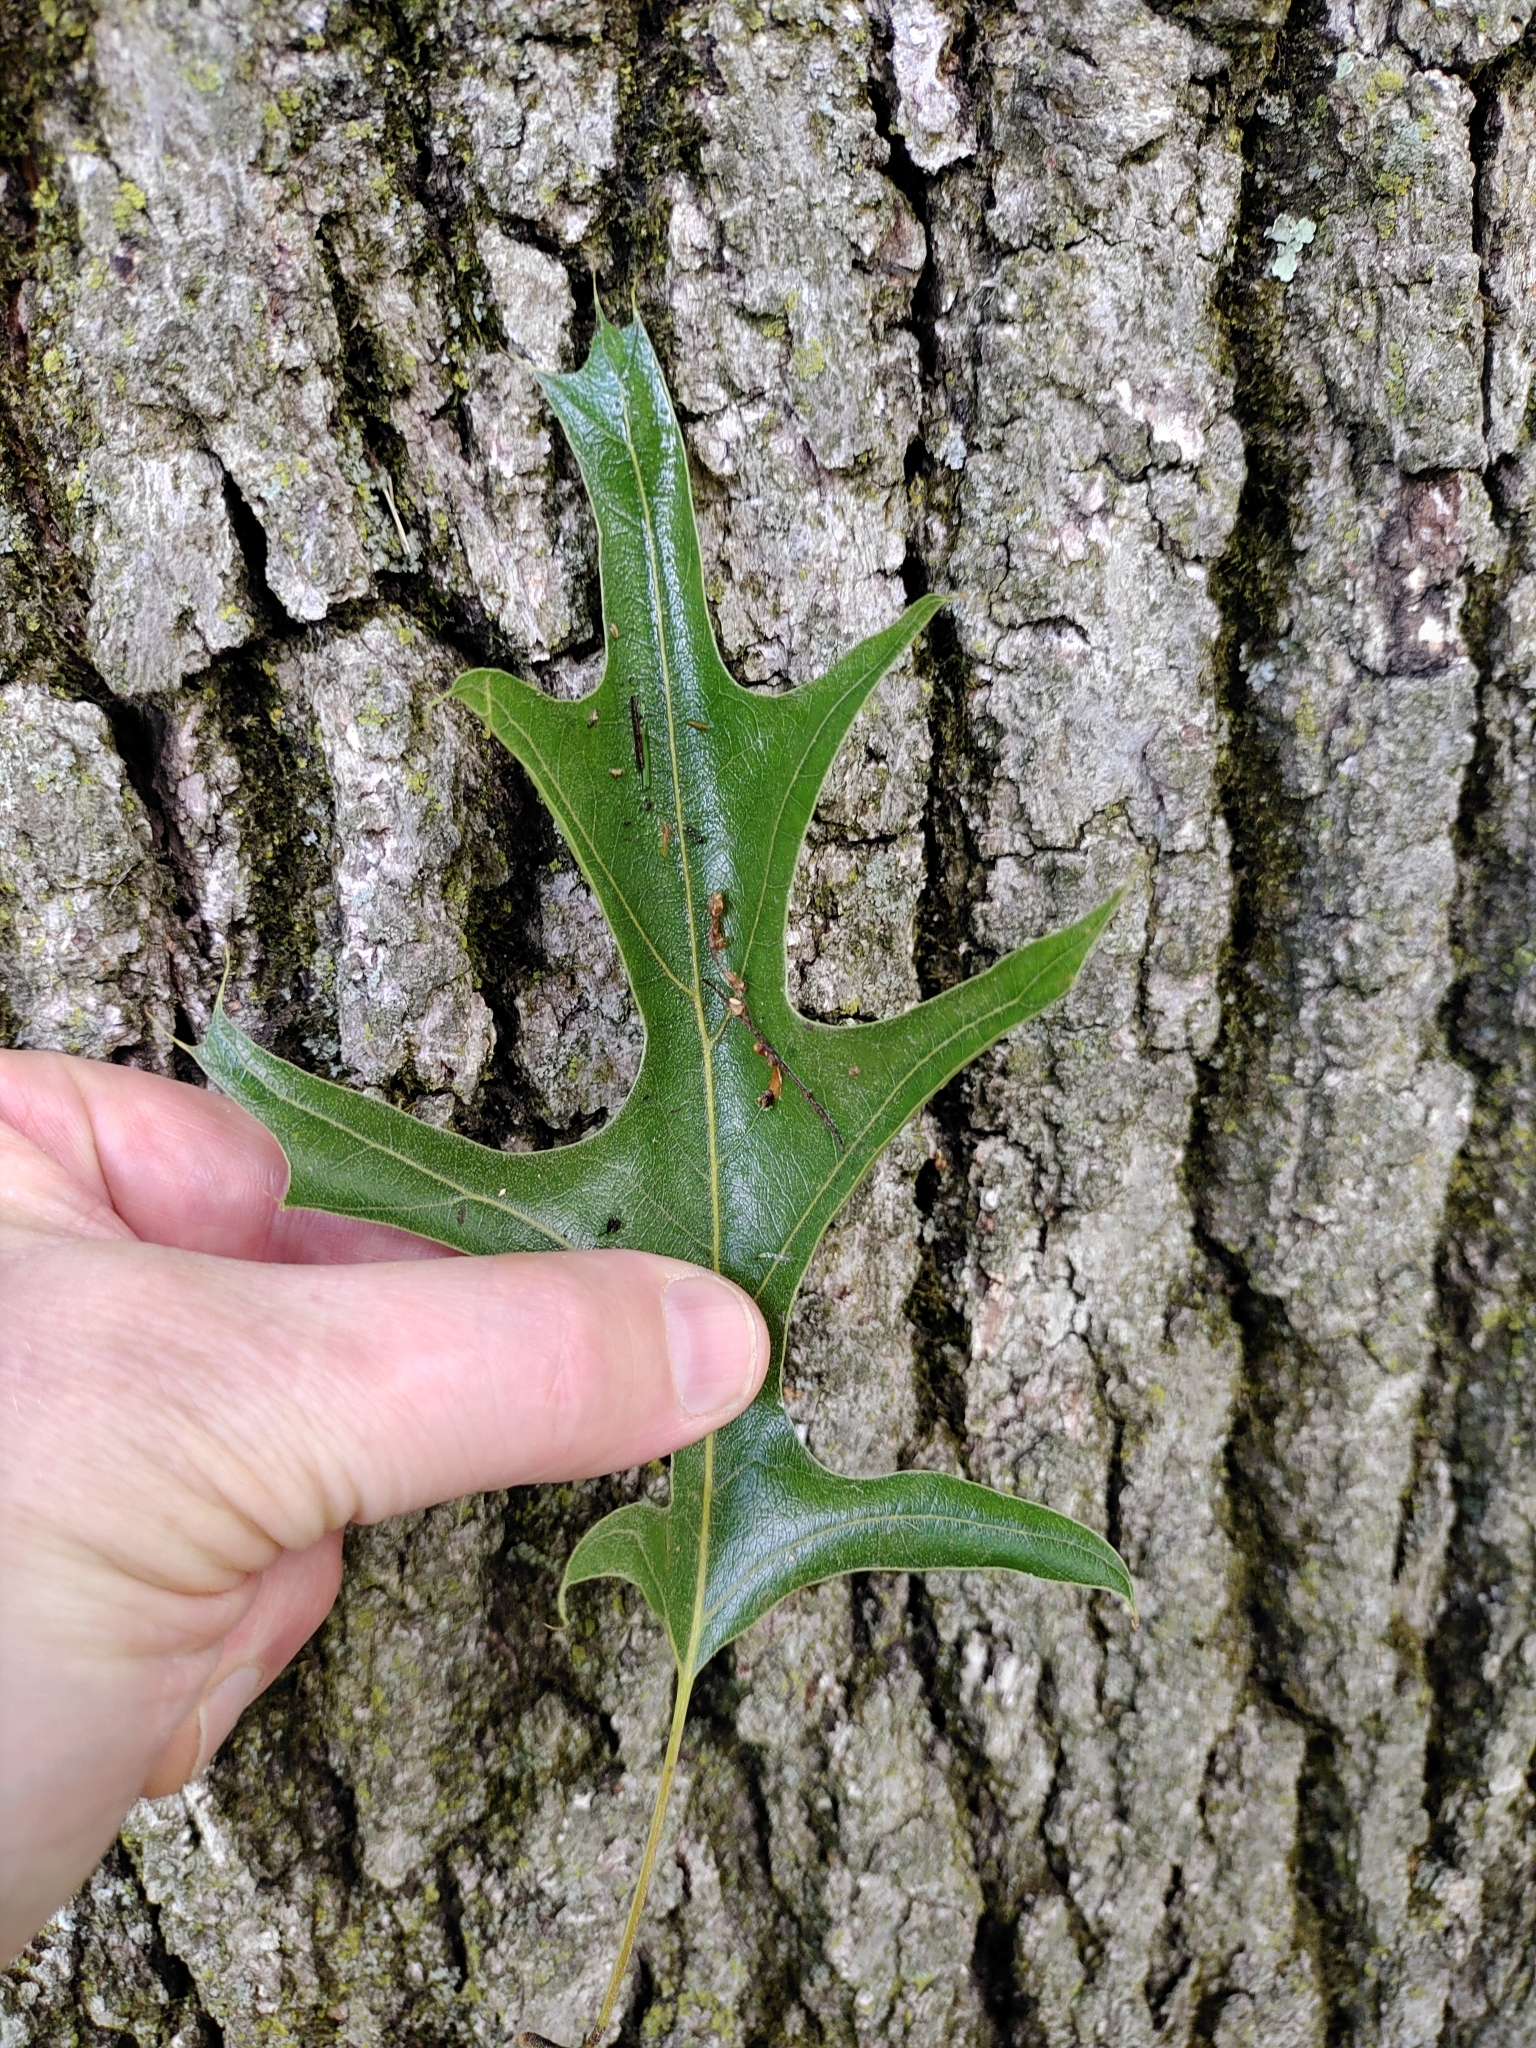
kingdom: Plantae
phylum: Tracheophyta
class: Magnoliopsida
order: Fagales
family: Fagaceae
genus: Quercus
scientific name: Quercus velutina
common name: Black oak
